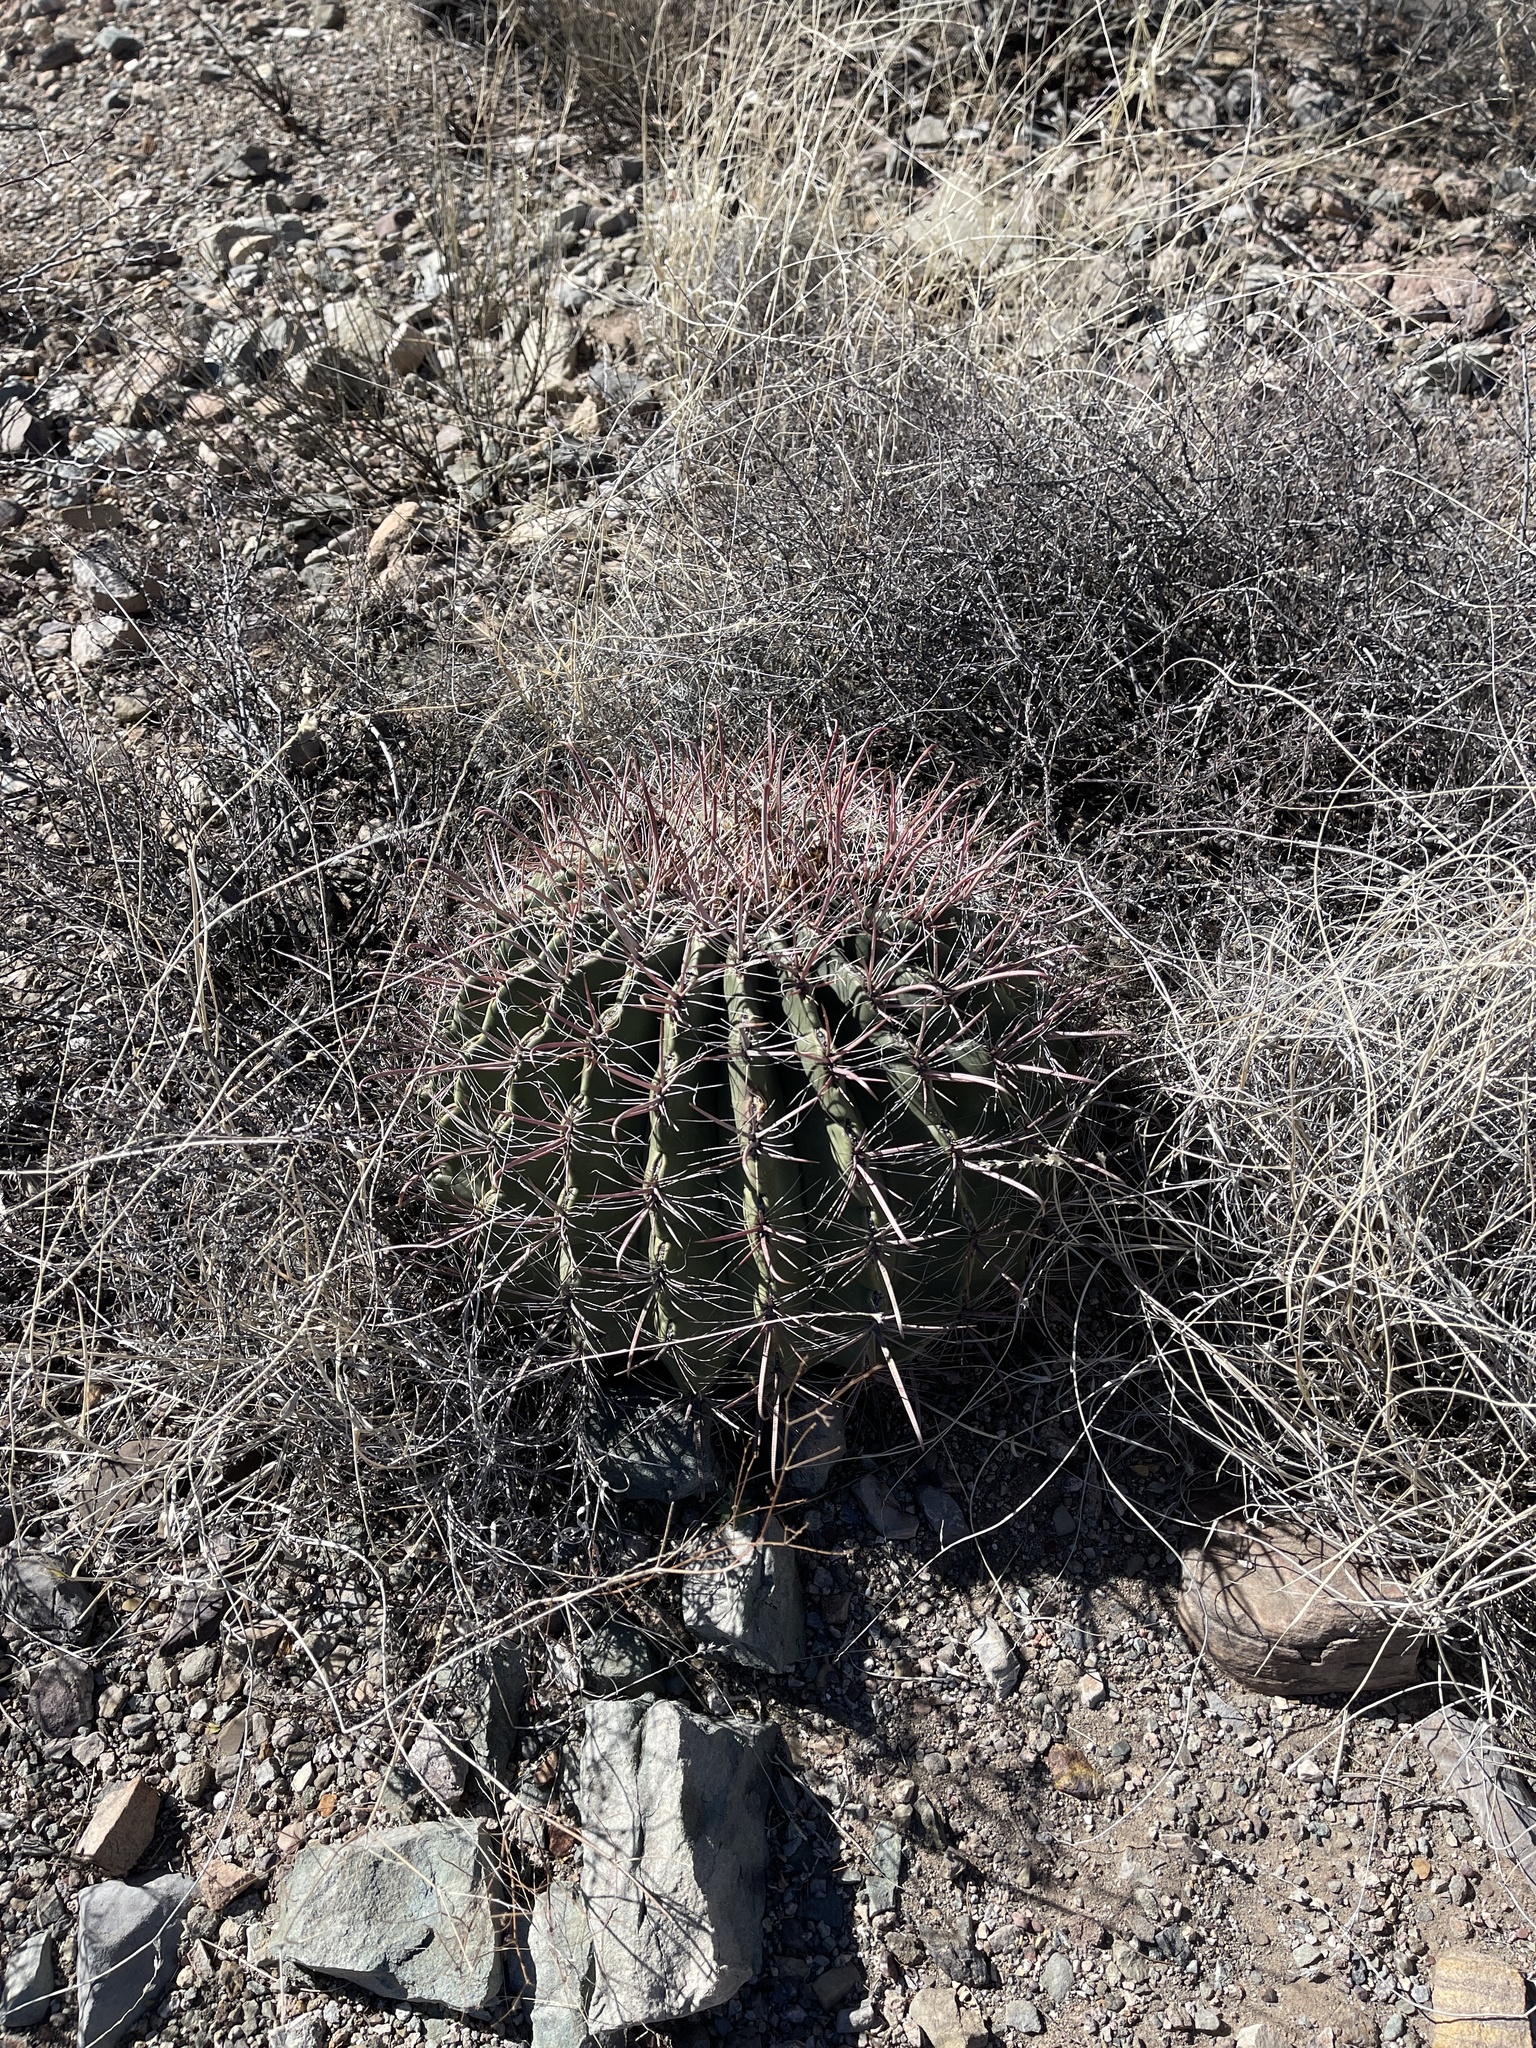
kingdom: Plantae
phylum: Tracheophyta
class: Magnoliopsida
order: Caryophyllales
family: Cactaceae
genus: Ferocactus
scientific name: Ferocactus wislizeni
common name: Candy barrel cactus
